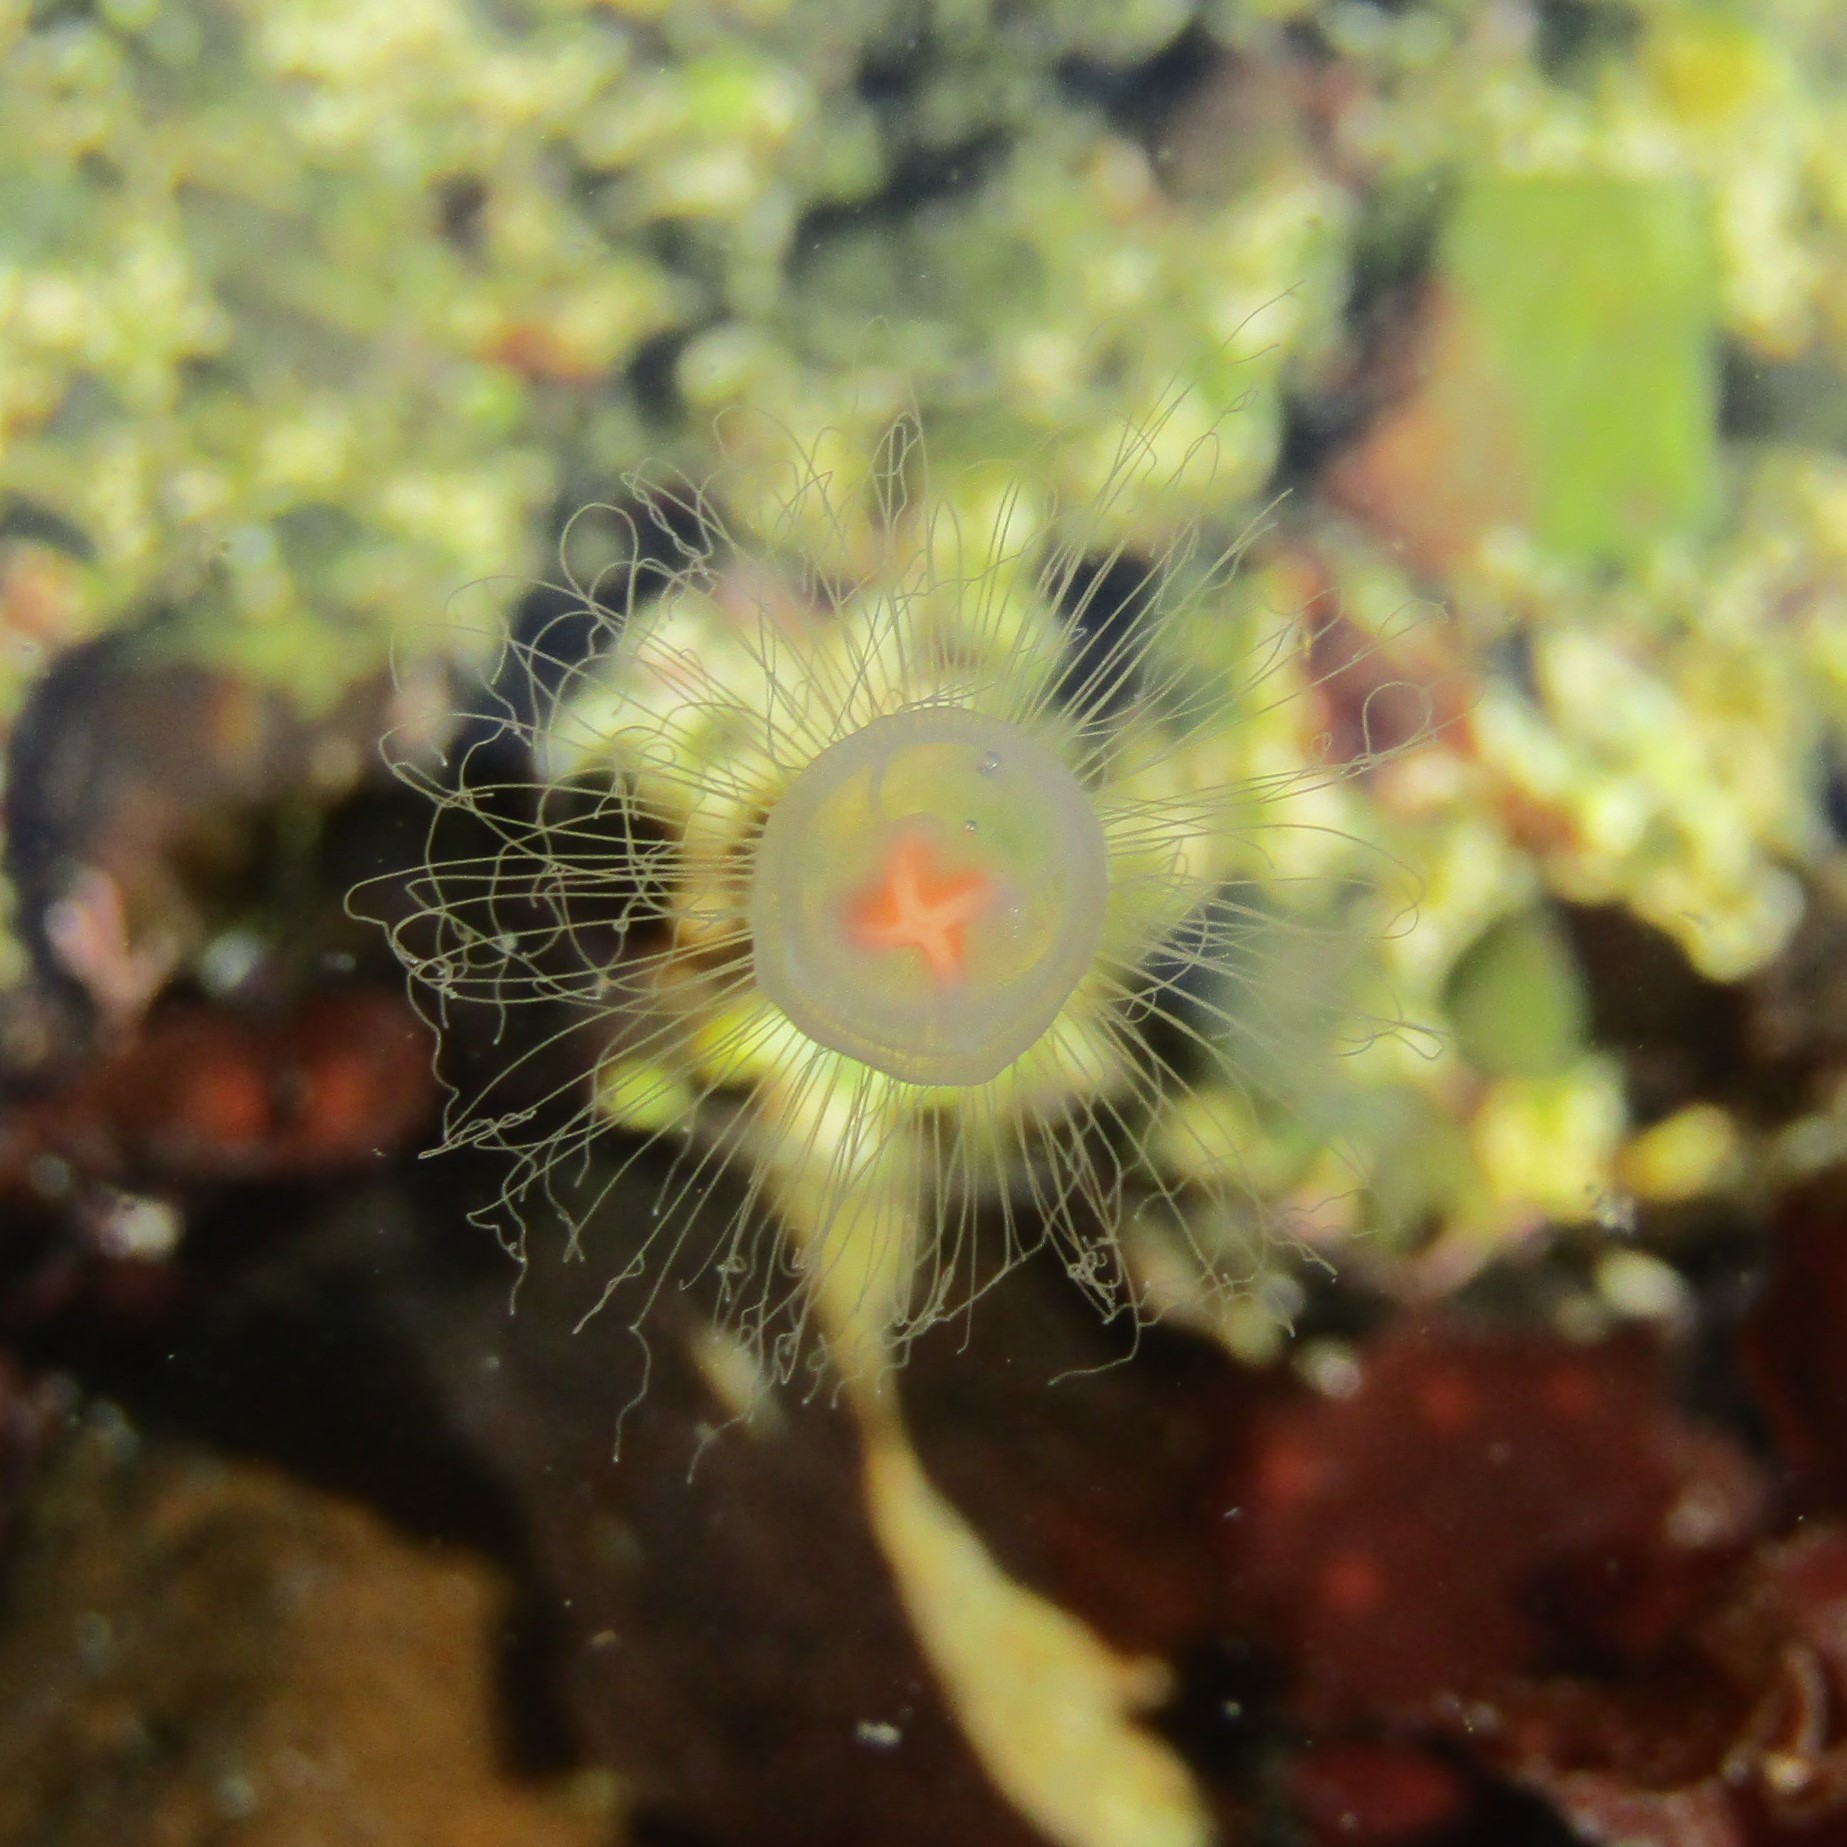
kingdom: Animalia
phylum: Cnidaria
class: Hydrozoa
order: Anthoathecata
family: Oceaniidae
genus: Turritopsis
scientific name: Turritopsis rubra
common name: Crimson jelly
